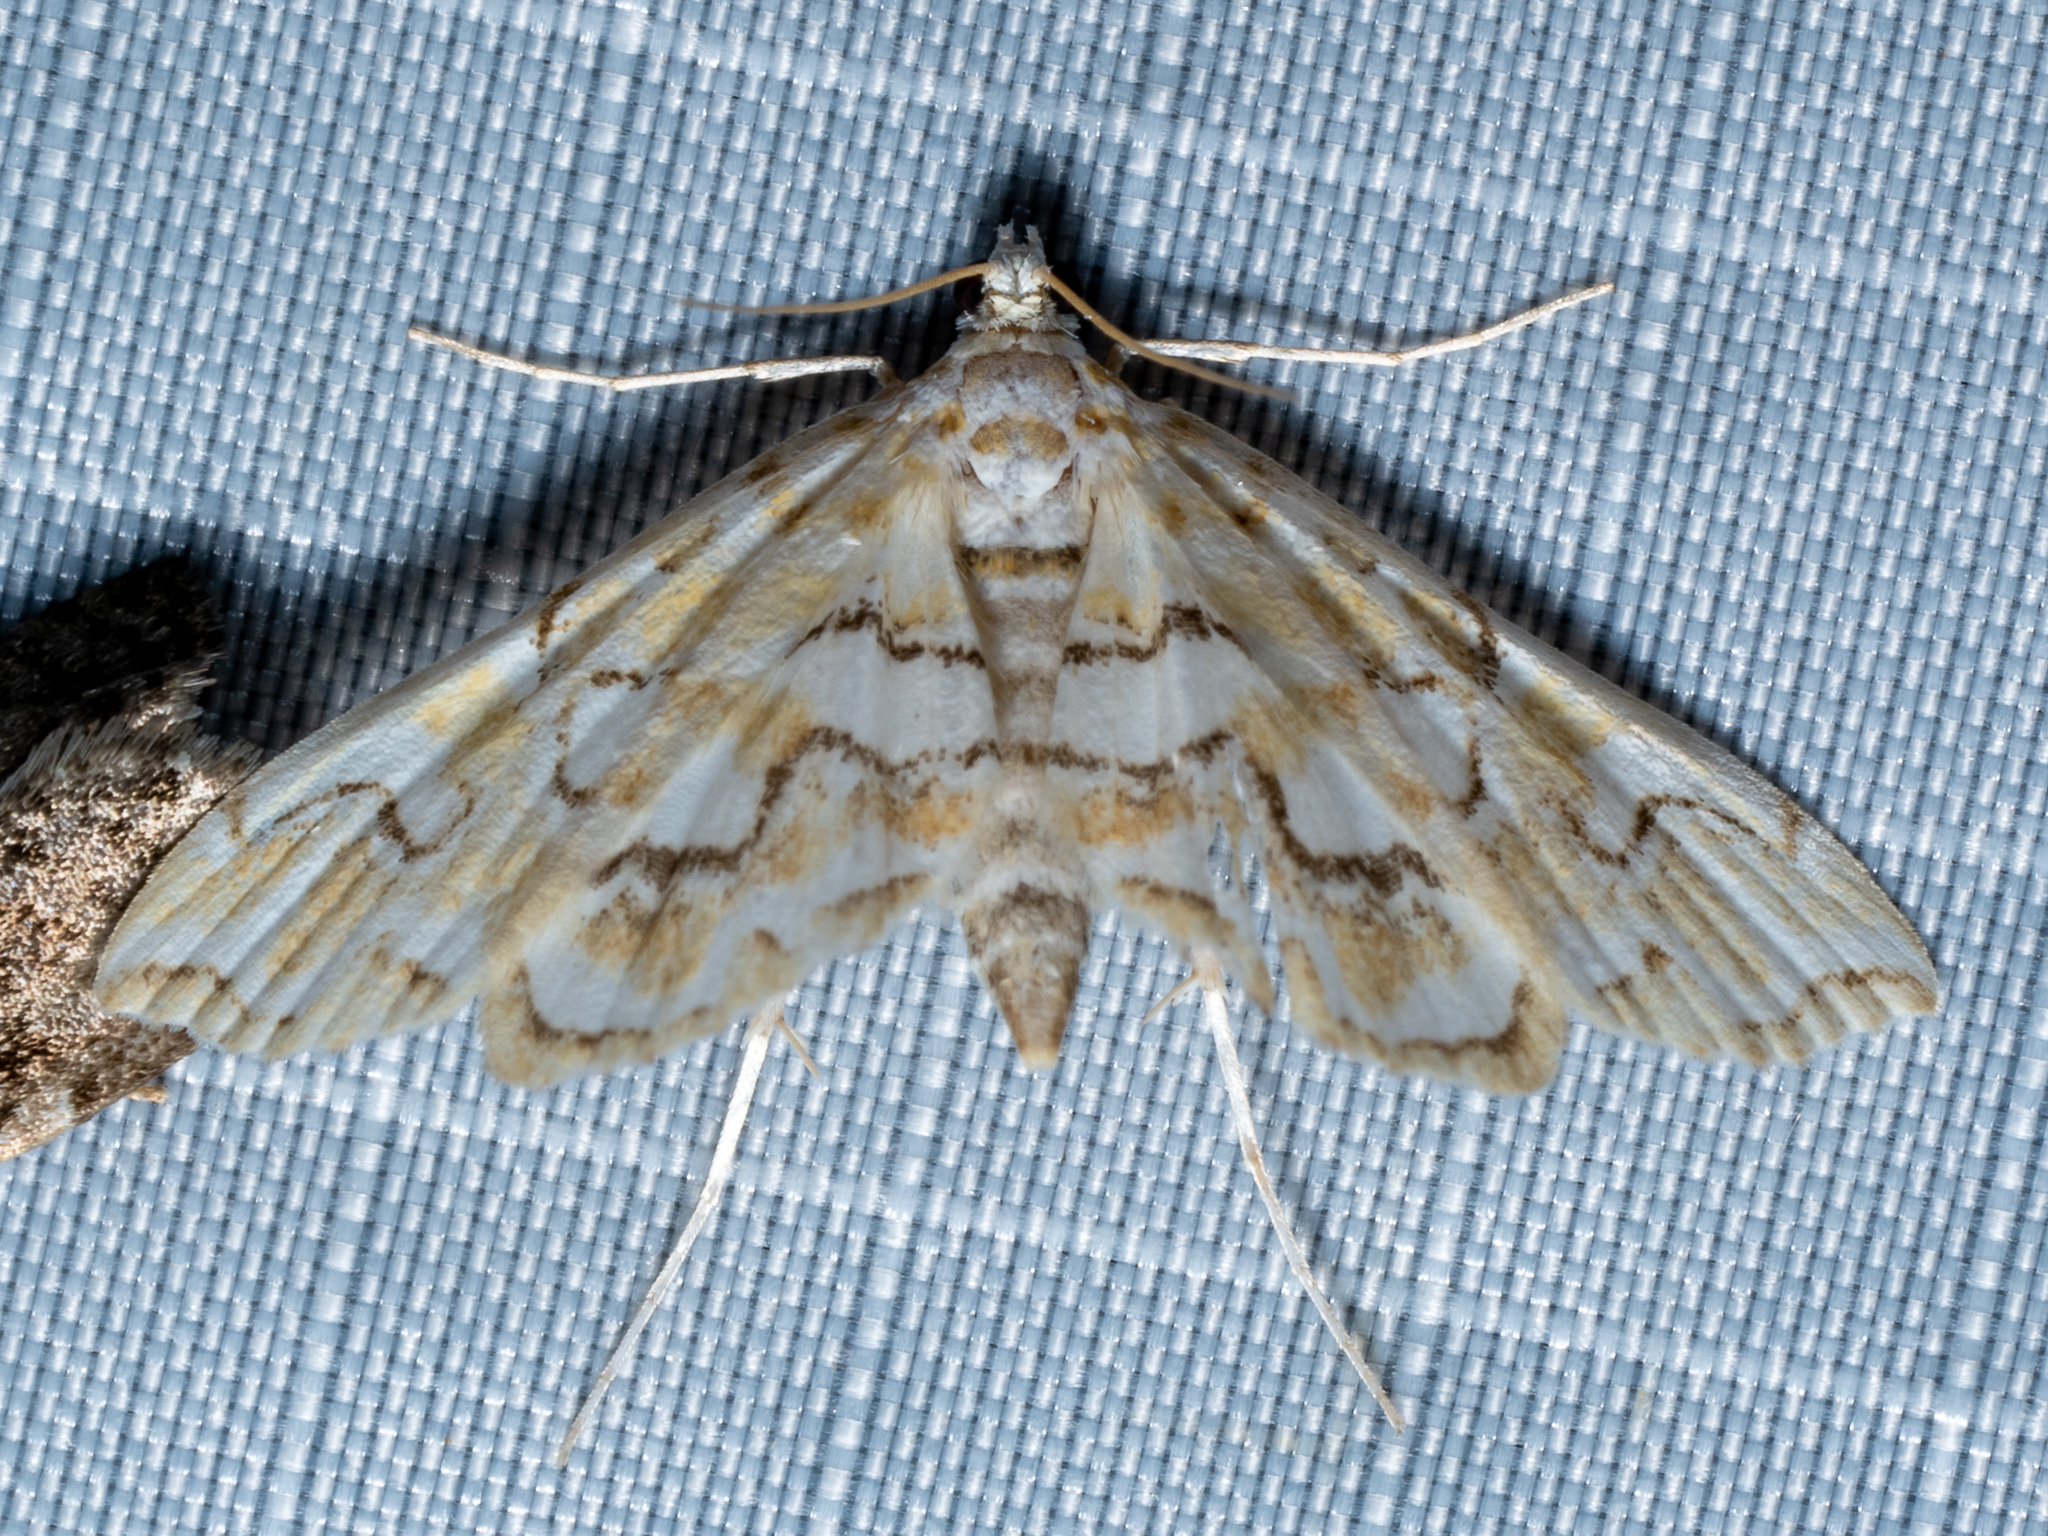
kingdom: Animalia
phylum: Arthropoda
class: Insecta
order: Lepidoptera
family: Crambidae
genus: Elophila
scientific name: Elophila icciusalis
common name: Pondside pyralid moth
